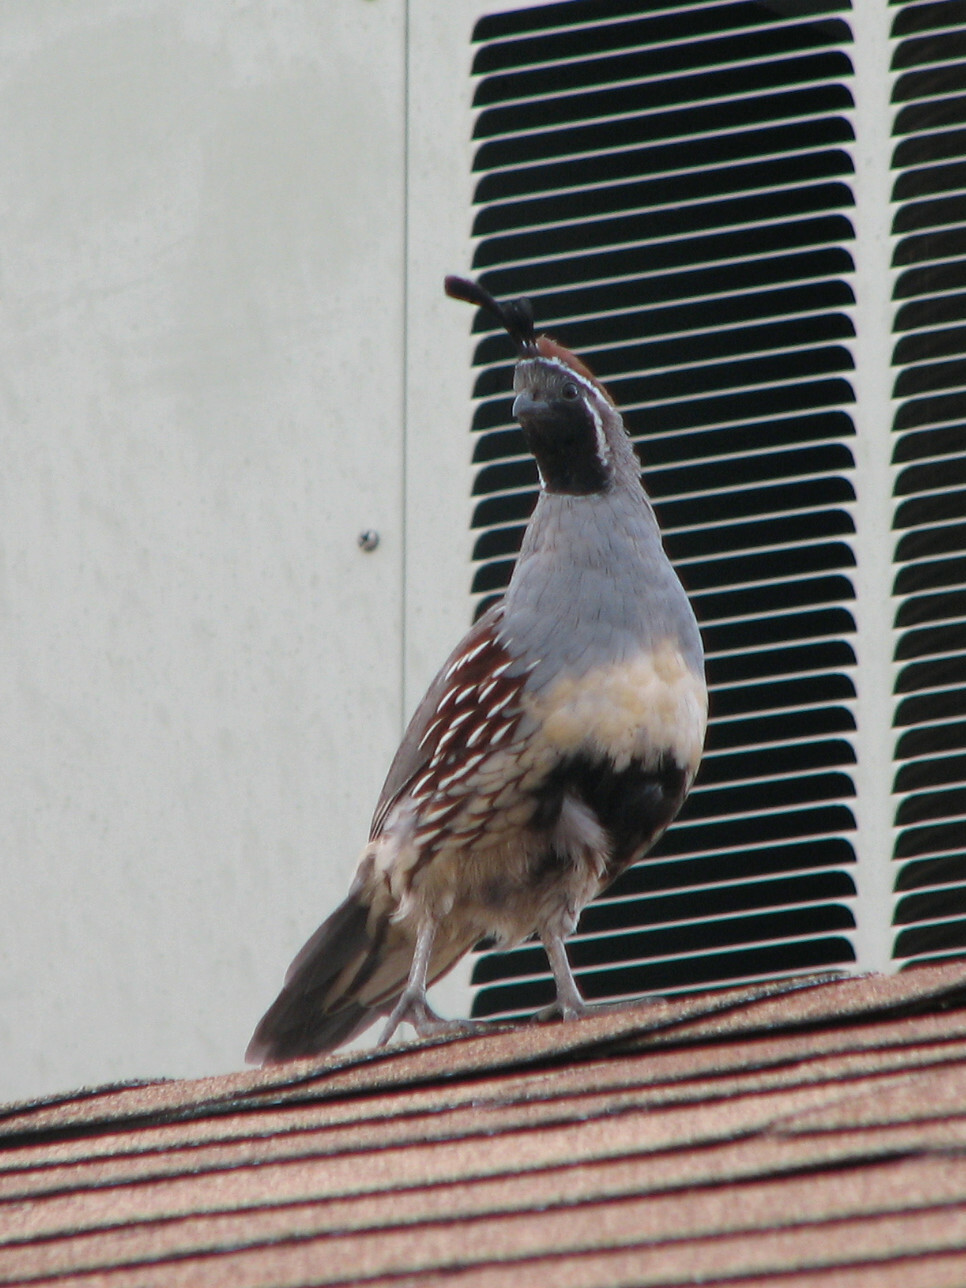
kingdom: Animalia
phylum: Chordata
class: Aves
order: Galliformes
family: Odontophoridae
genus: Callipepla
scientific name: Callipepla gambelii
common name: Gambel's quail
